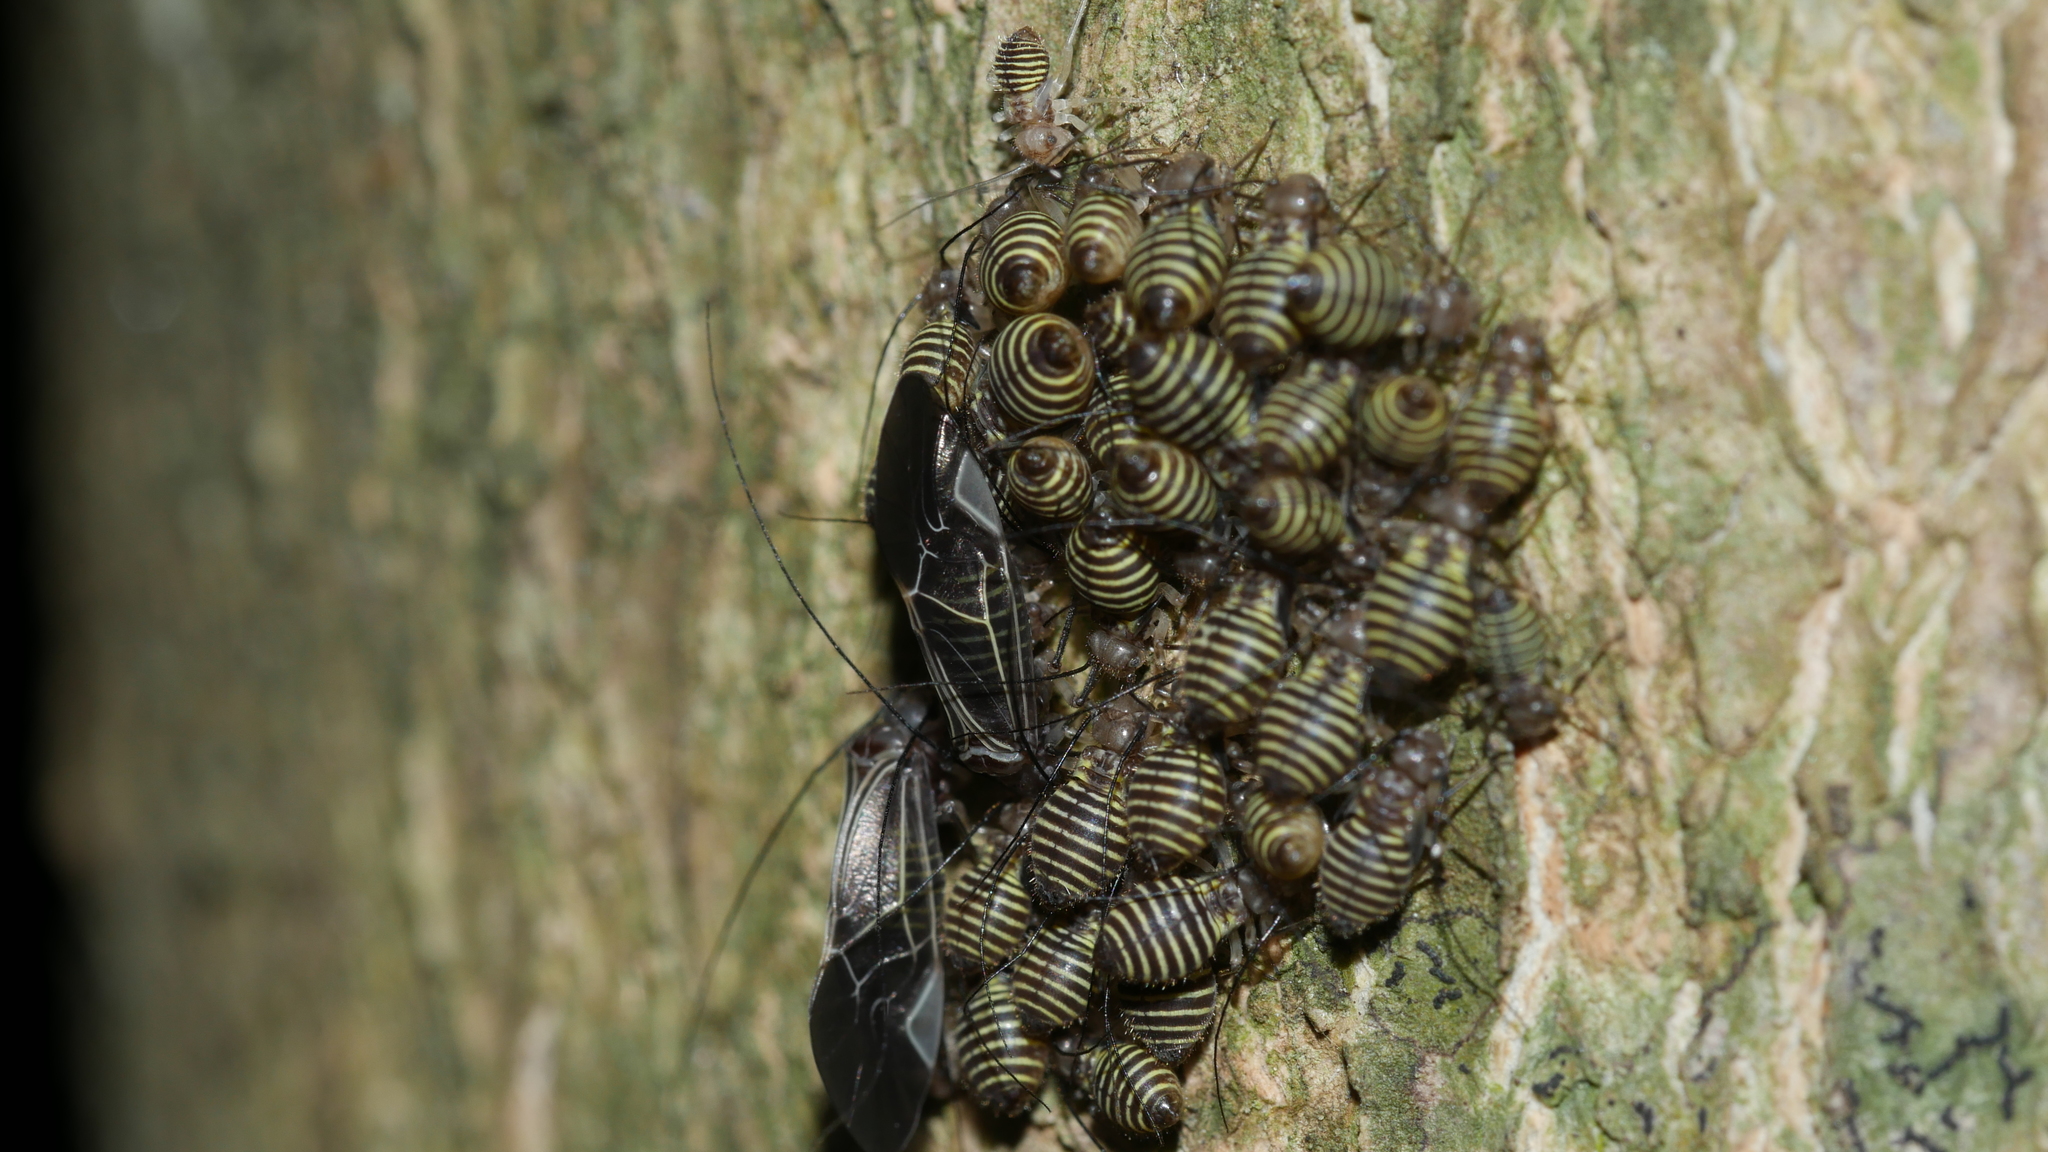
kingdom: Animalia
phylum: Arthropoda
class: Insecta
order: Psocodea
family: Psocidae
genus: Cerastipsocus
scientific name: Cerastipsocus venosus
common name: Tree cattle
